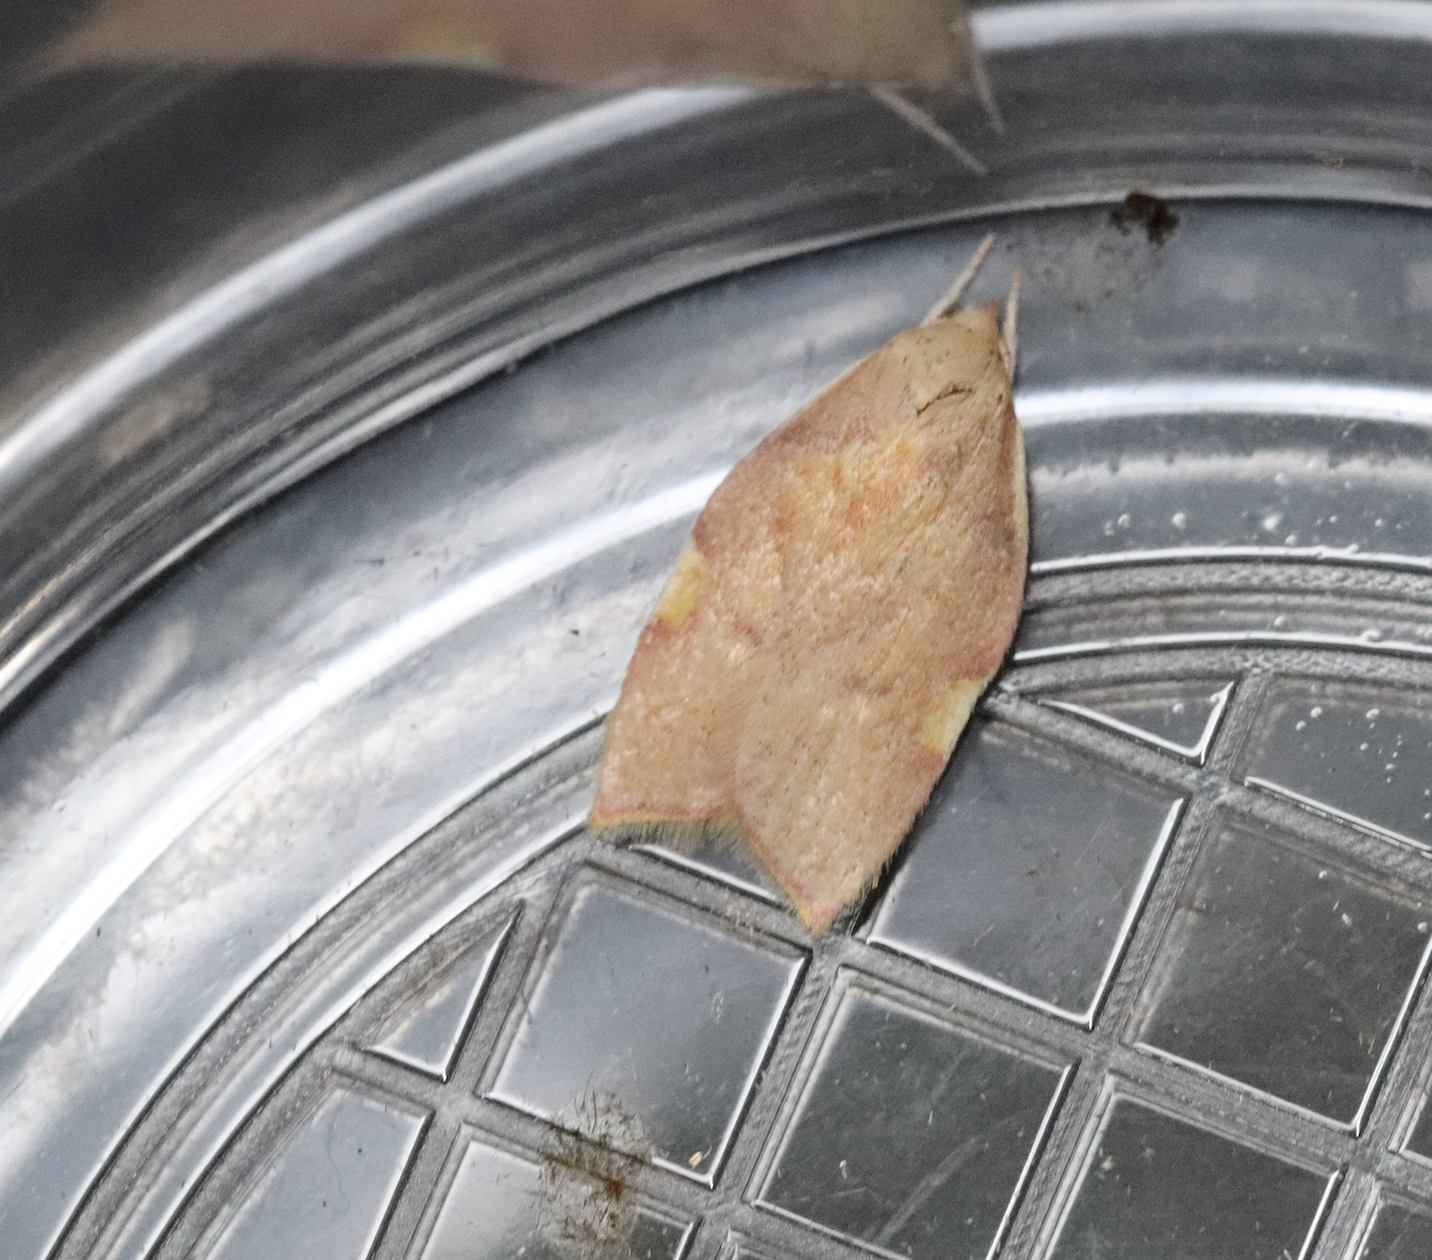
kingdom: Animalia
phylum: Arthropoda
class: Insecta
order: Lepidoptera
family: Peleopodidae
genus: Carcina
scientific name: Carcina quercana
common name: Moth
